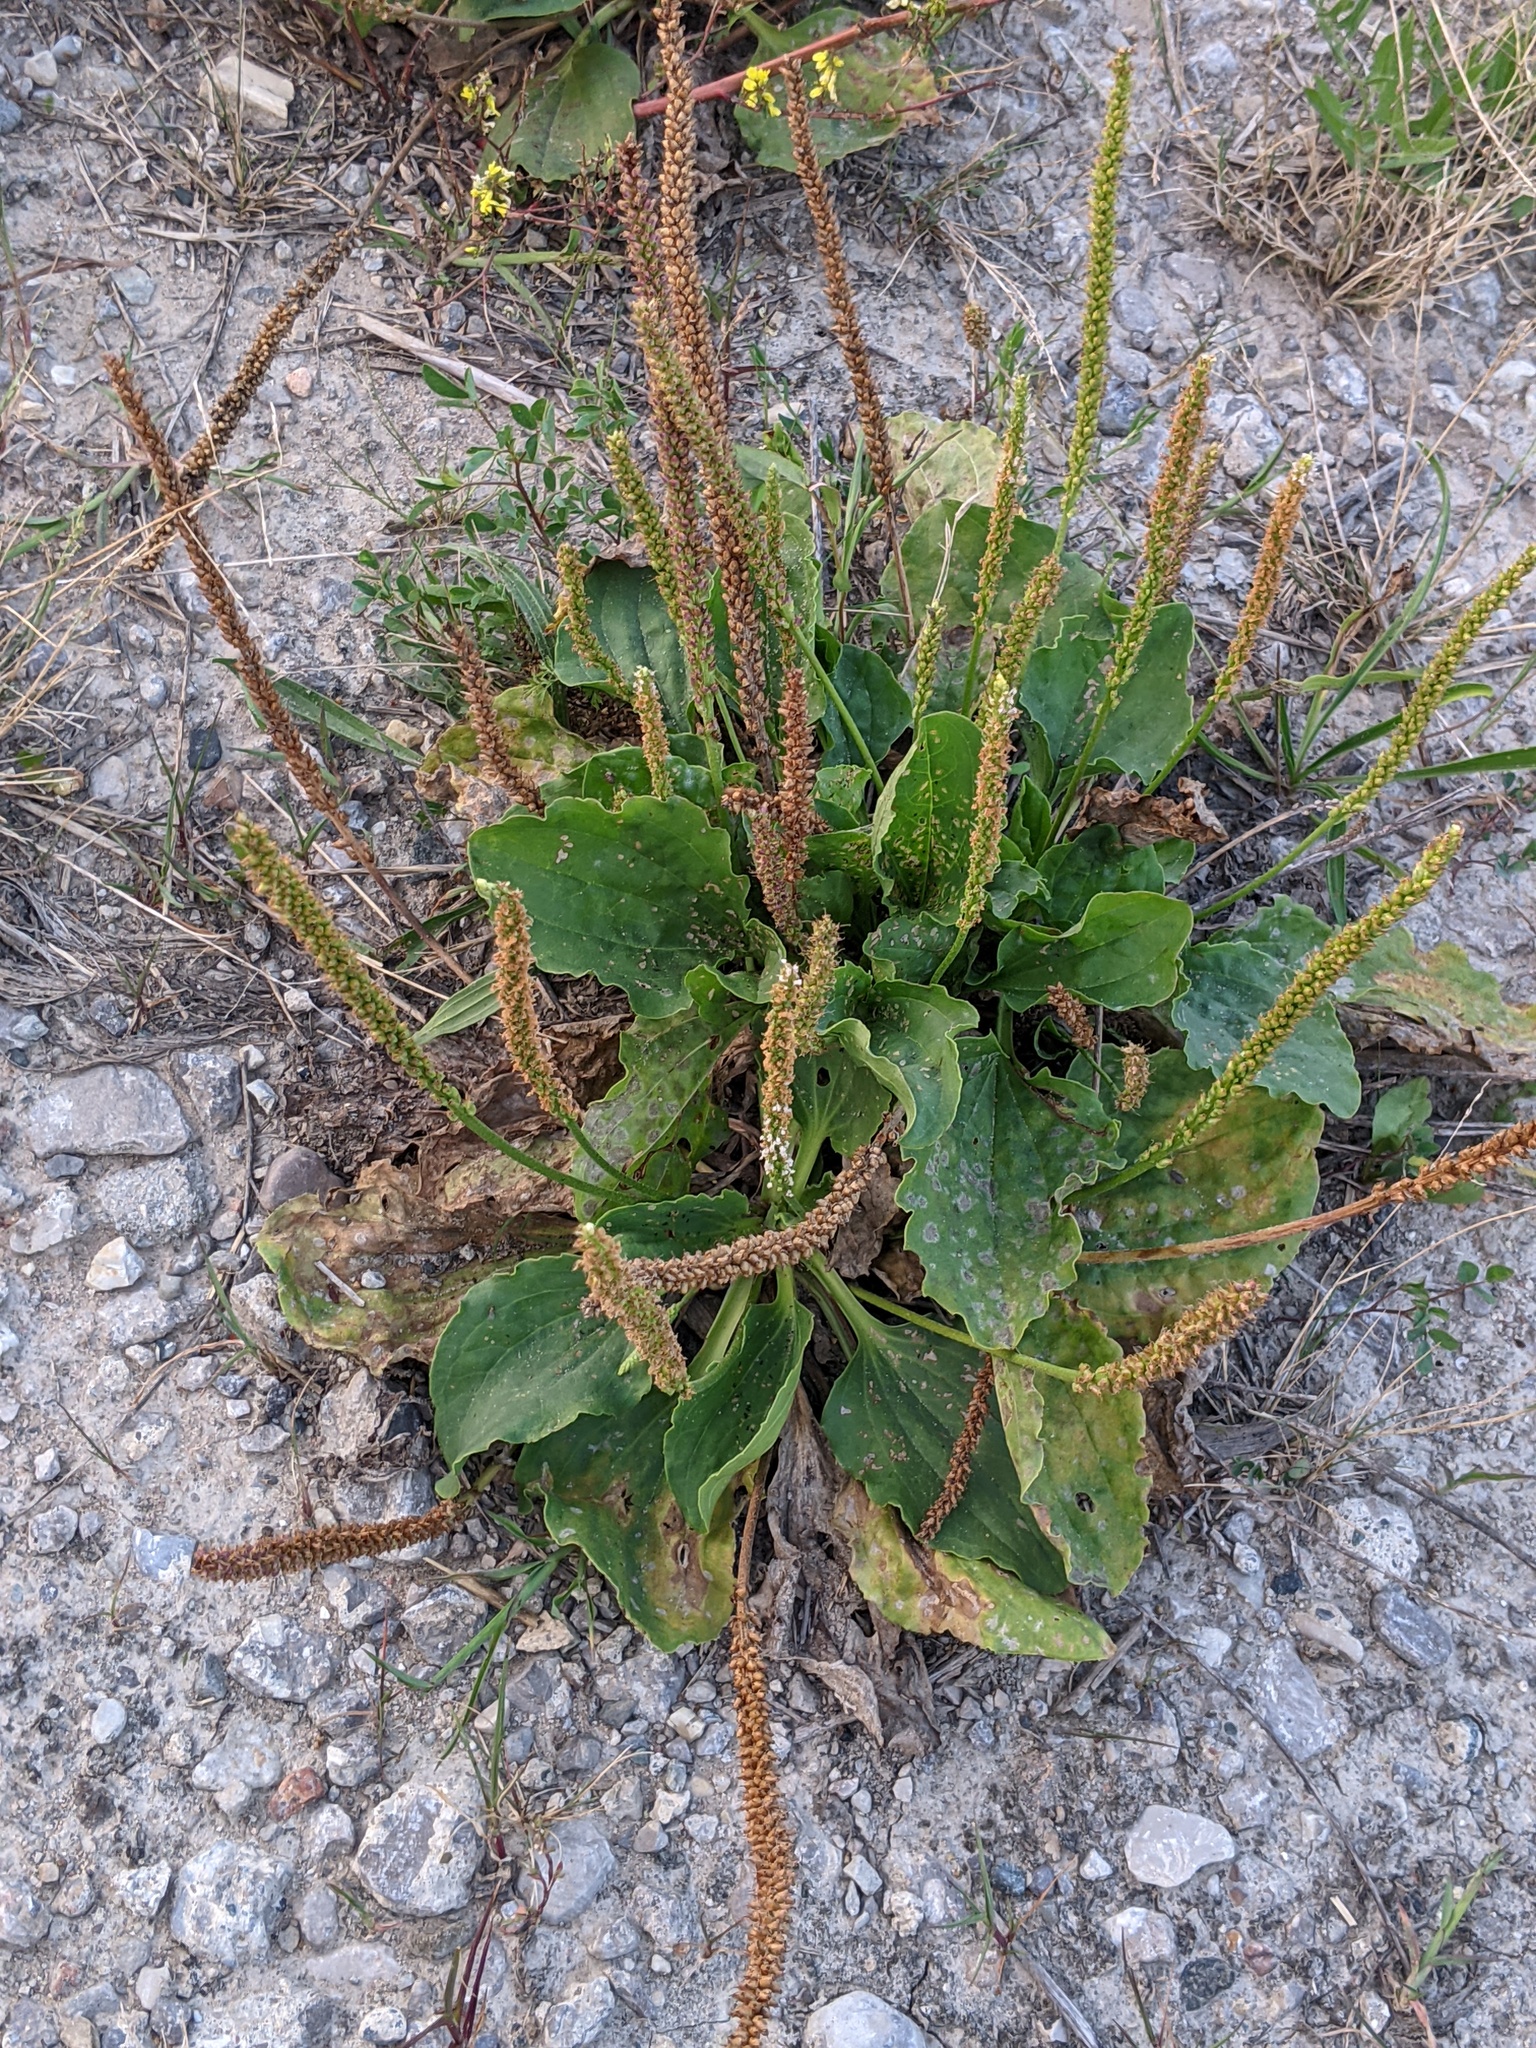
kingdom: Plantae
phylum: Tracheophyta
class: Magnoliopsida
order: Lamiales
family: Plantaginaceae
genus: Plantago
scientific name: Plantago major
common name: Common plantain
